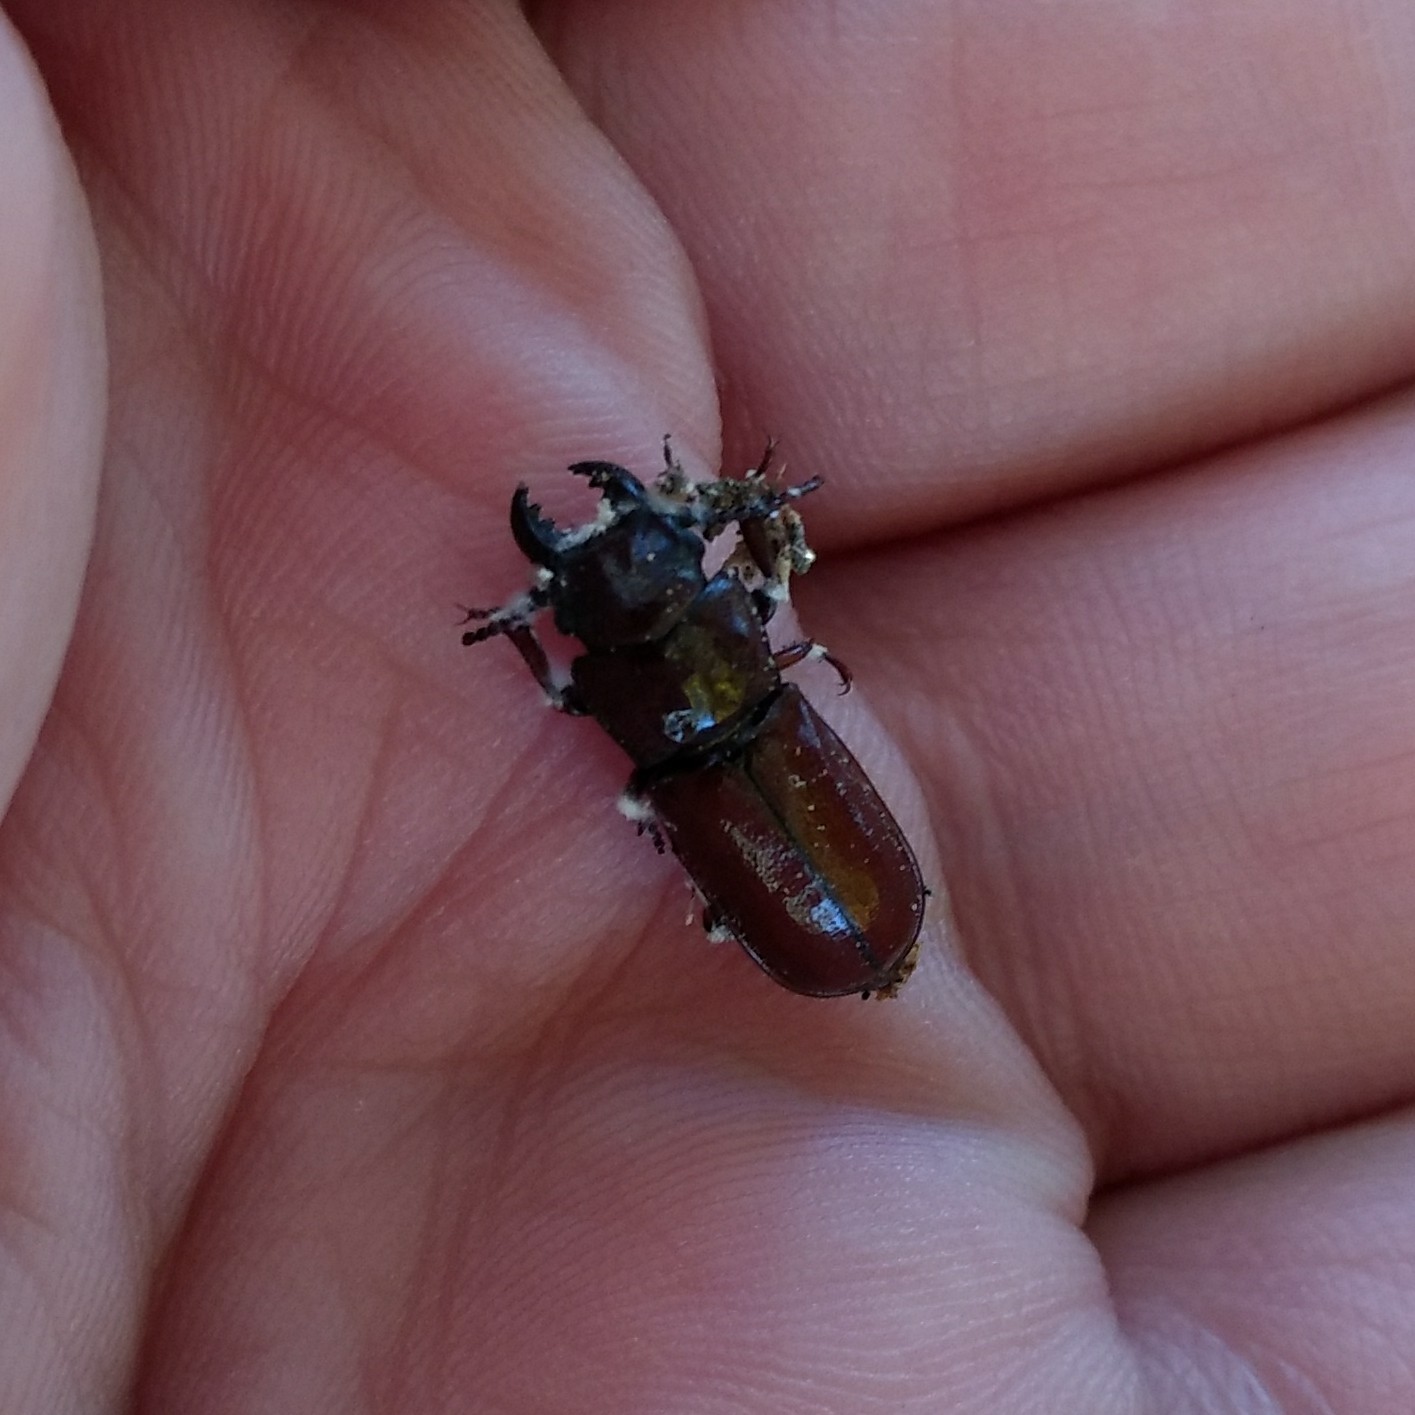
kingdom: Animalia
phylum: Arthropoda
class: Insecta
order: Coleoptera
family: Cerambycidae
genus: Neandra
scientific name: Neandra brunnea
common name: Pole borer
